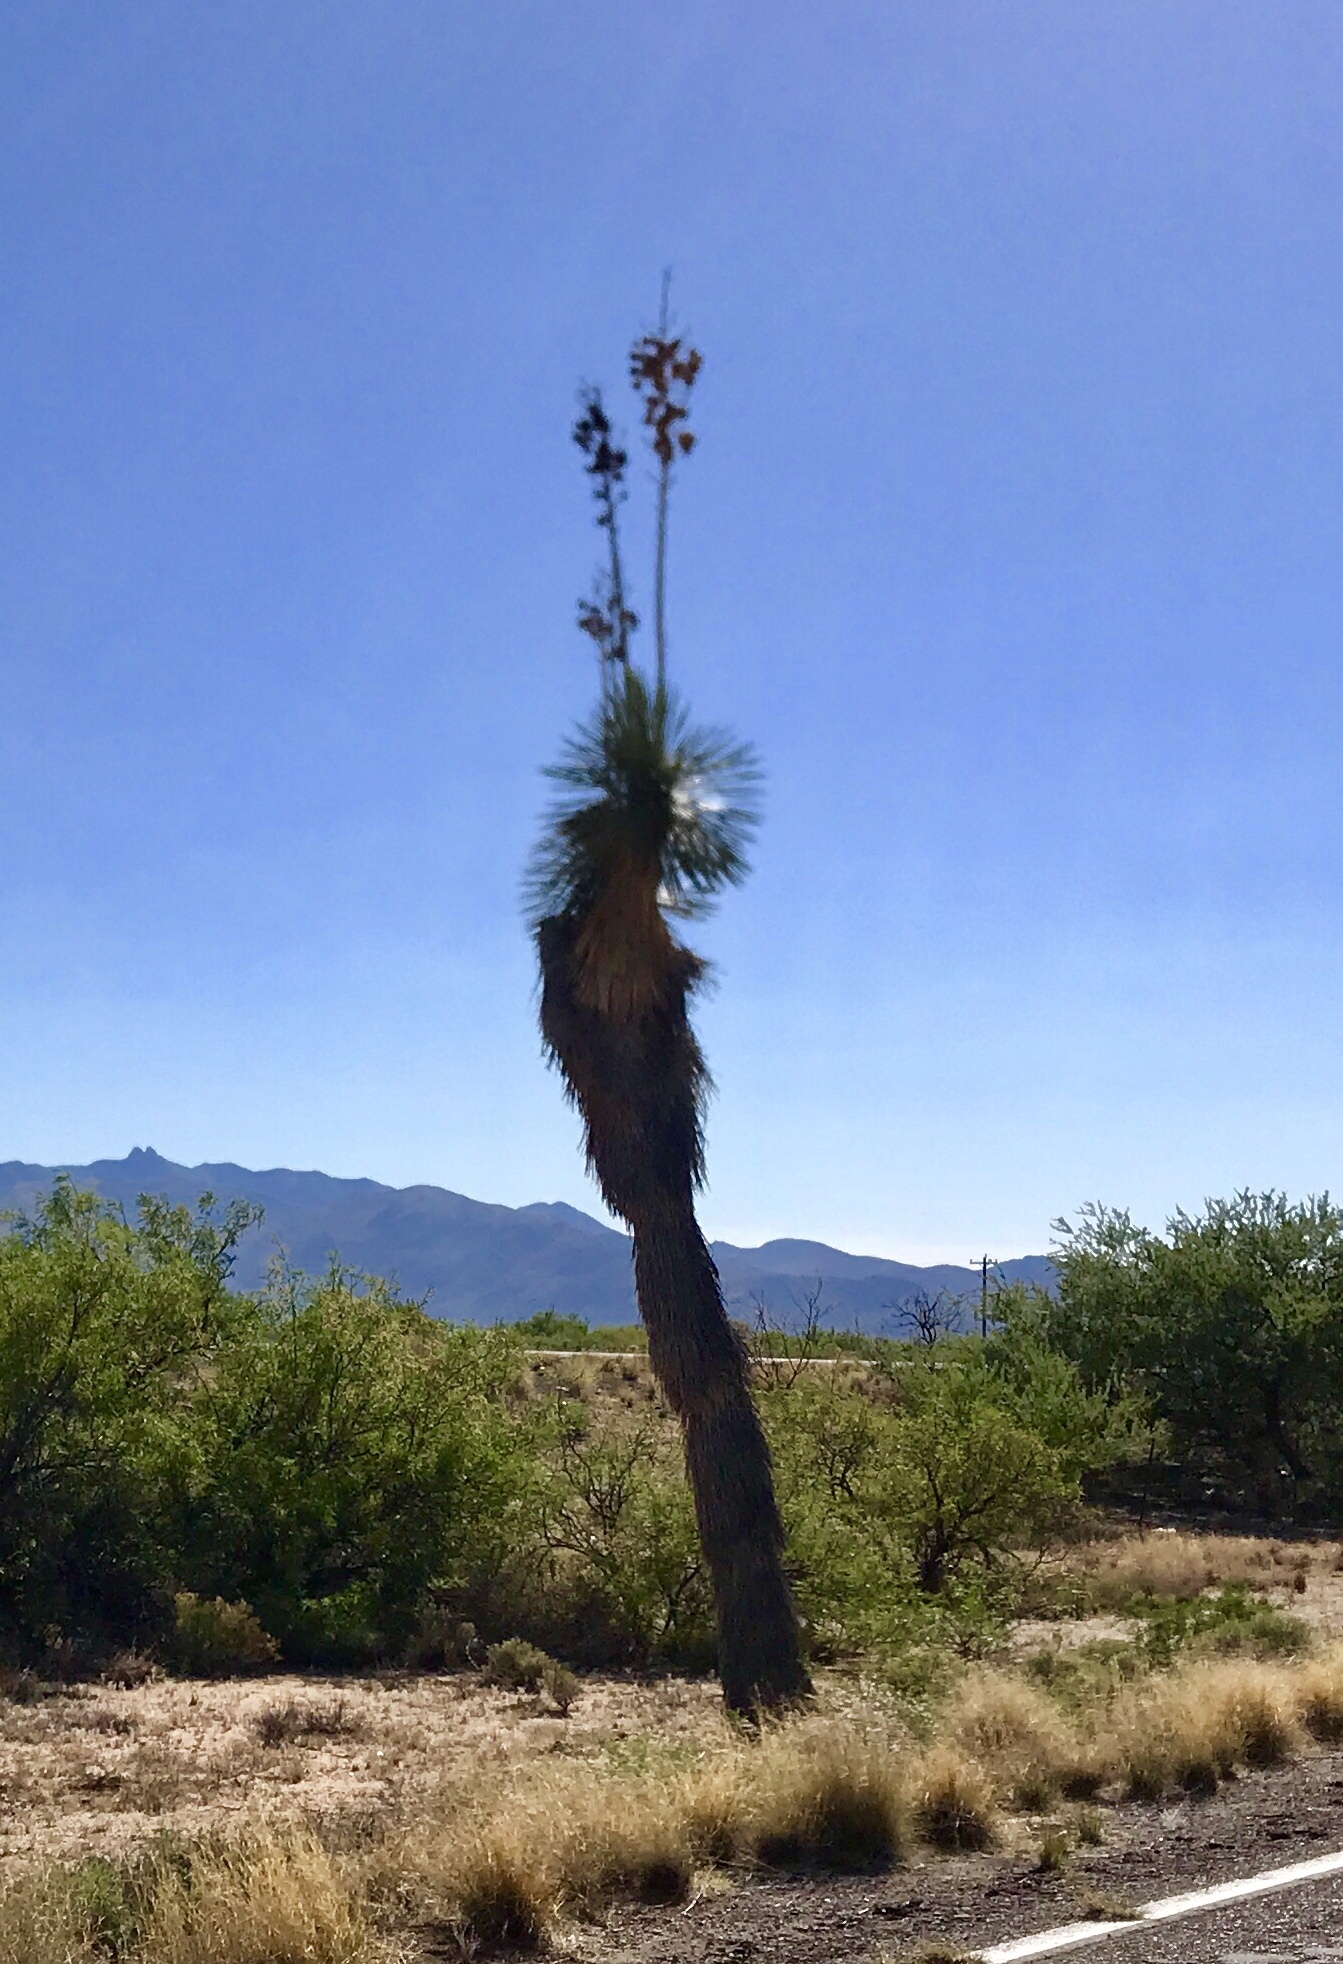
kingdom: Plantae
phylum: Tracheophyta
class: Liliopsida
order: Asparagales
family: Asparagaceae
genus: Yucca
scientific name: Yucca elata
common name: Palmella
